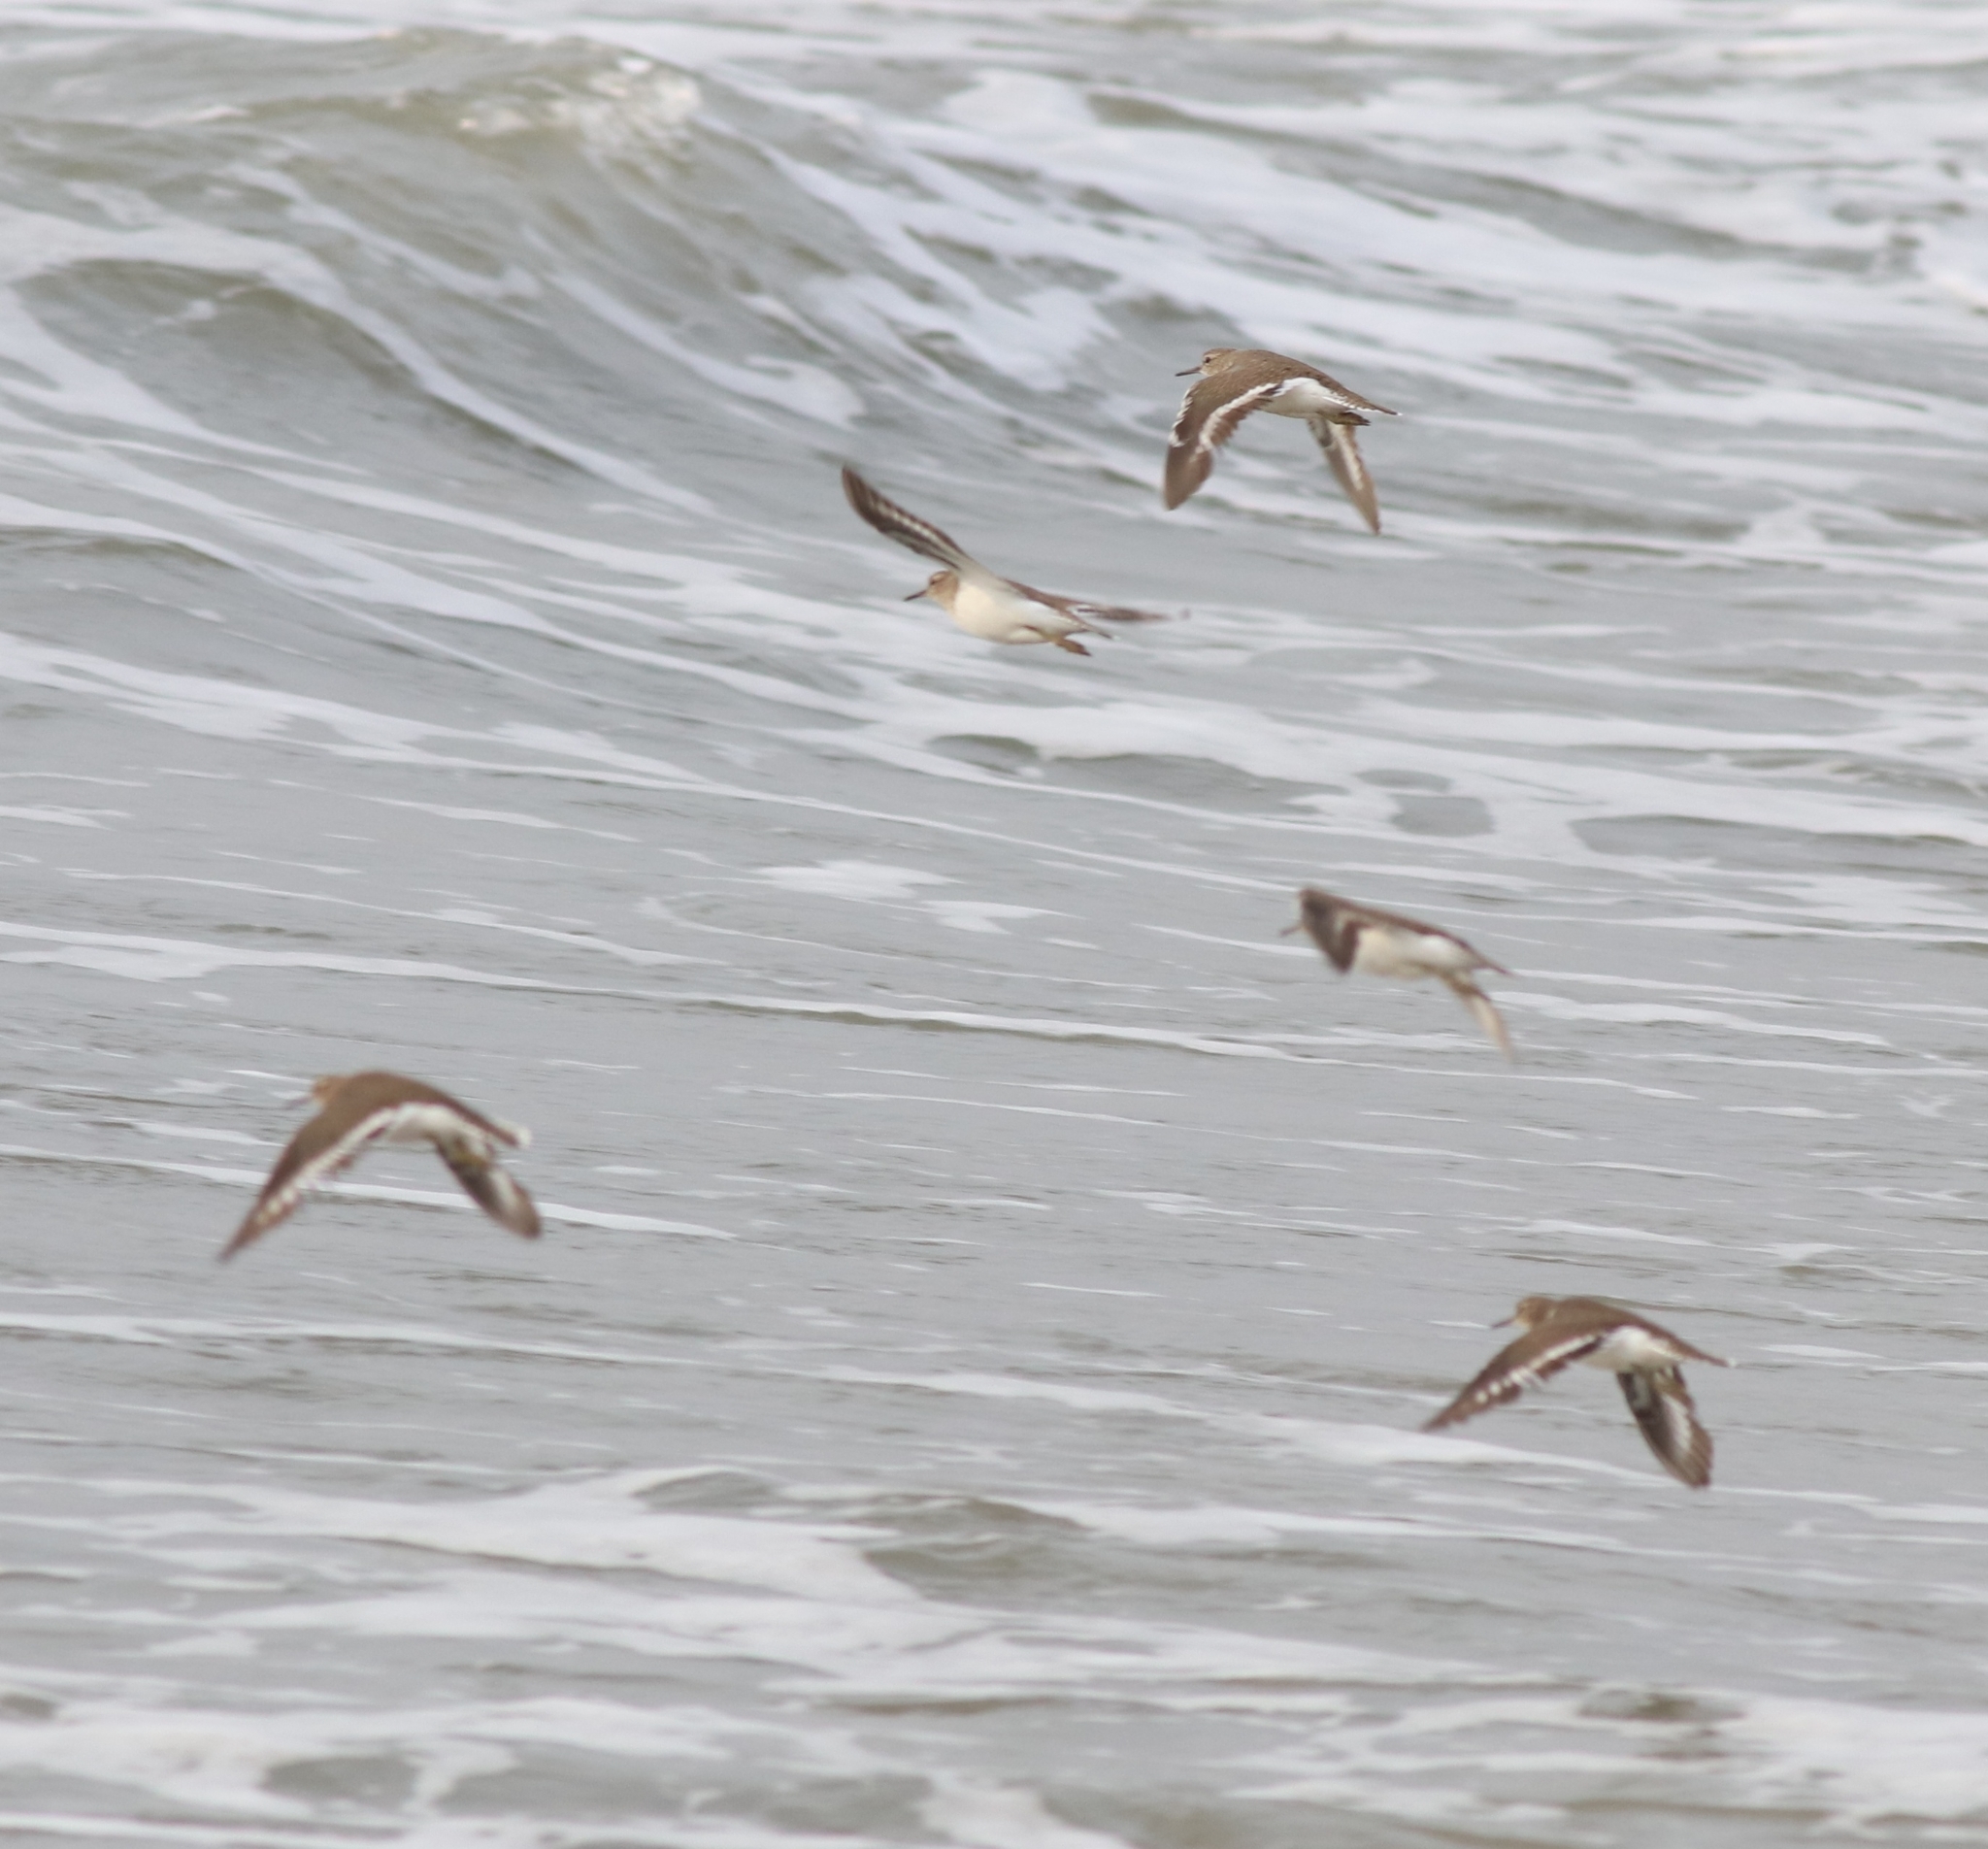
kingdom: Animalia
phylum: Chordata
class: Aves
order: Charadriiformes
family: Scolopacidae
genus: Actitis
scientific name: Actitis hypoleucos
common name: Common sandpiper
